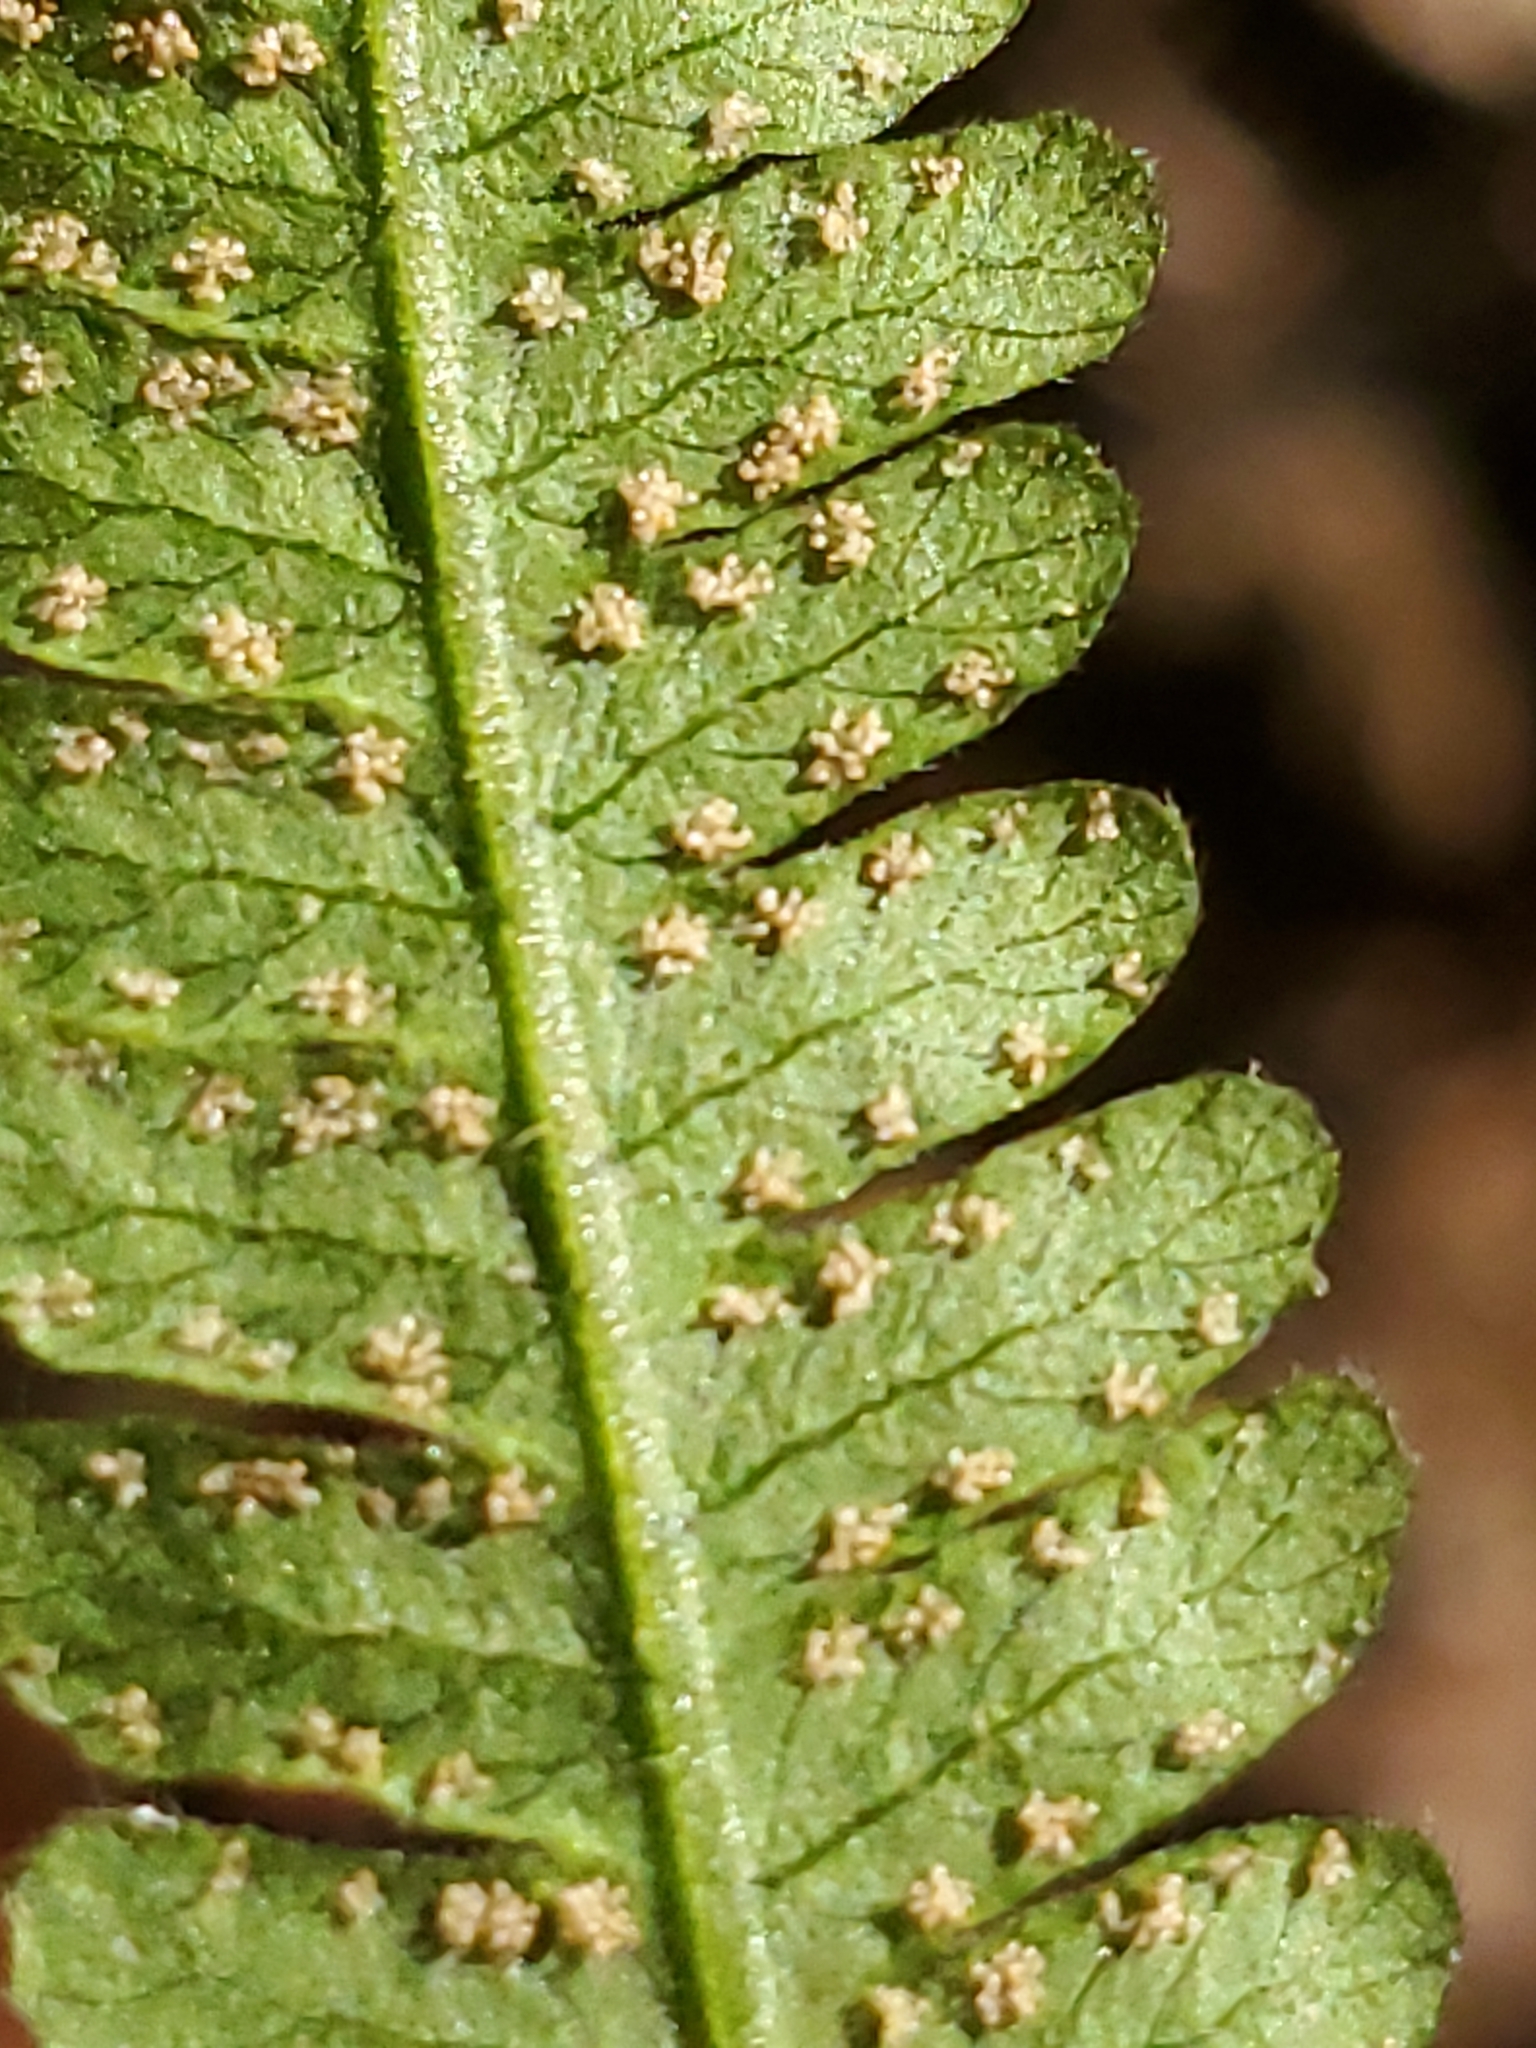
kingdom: Plantae
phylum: Tracheophyta
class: Polypodiopsida
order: Polypodiales
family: Thelypteridaceae
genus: Phegopteris
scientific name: Phegopteris hexagonoptera
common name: Broad beech fern
